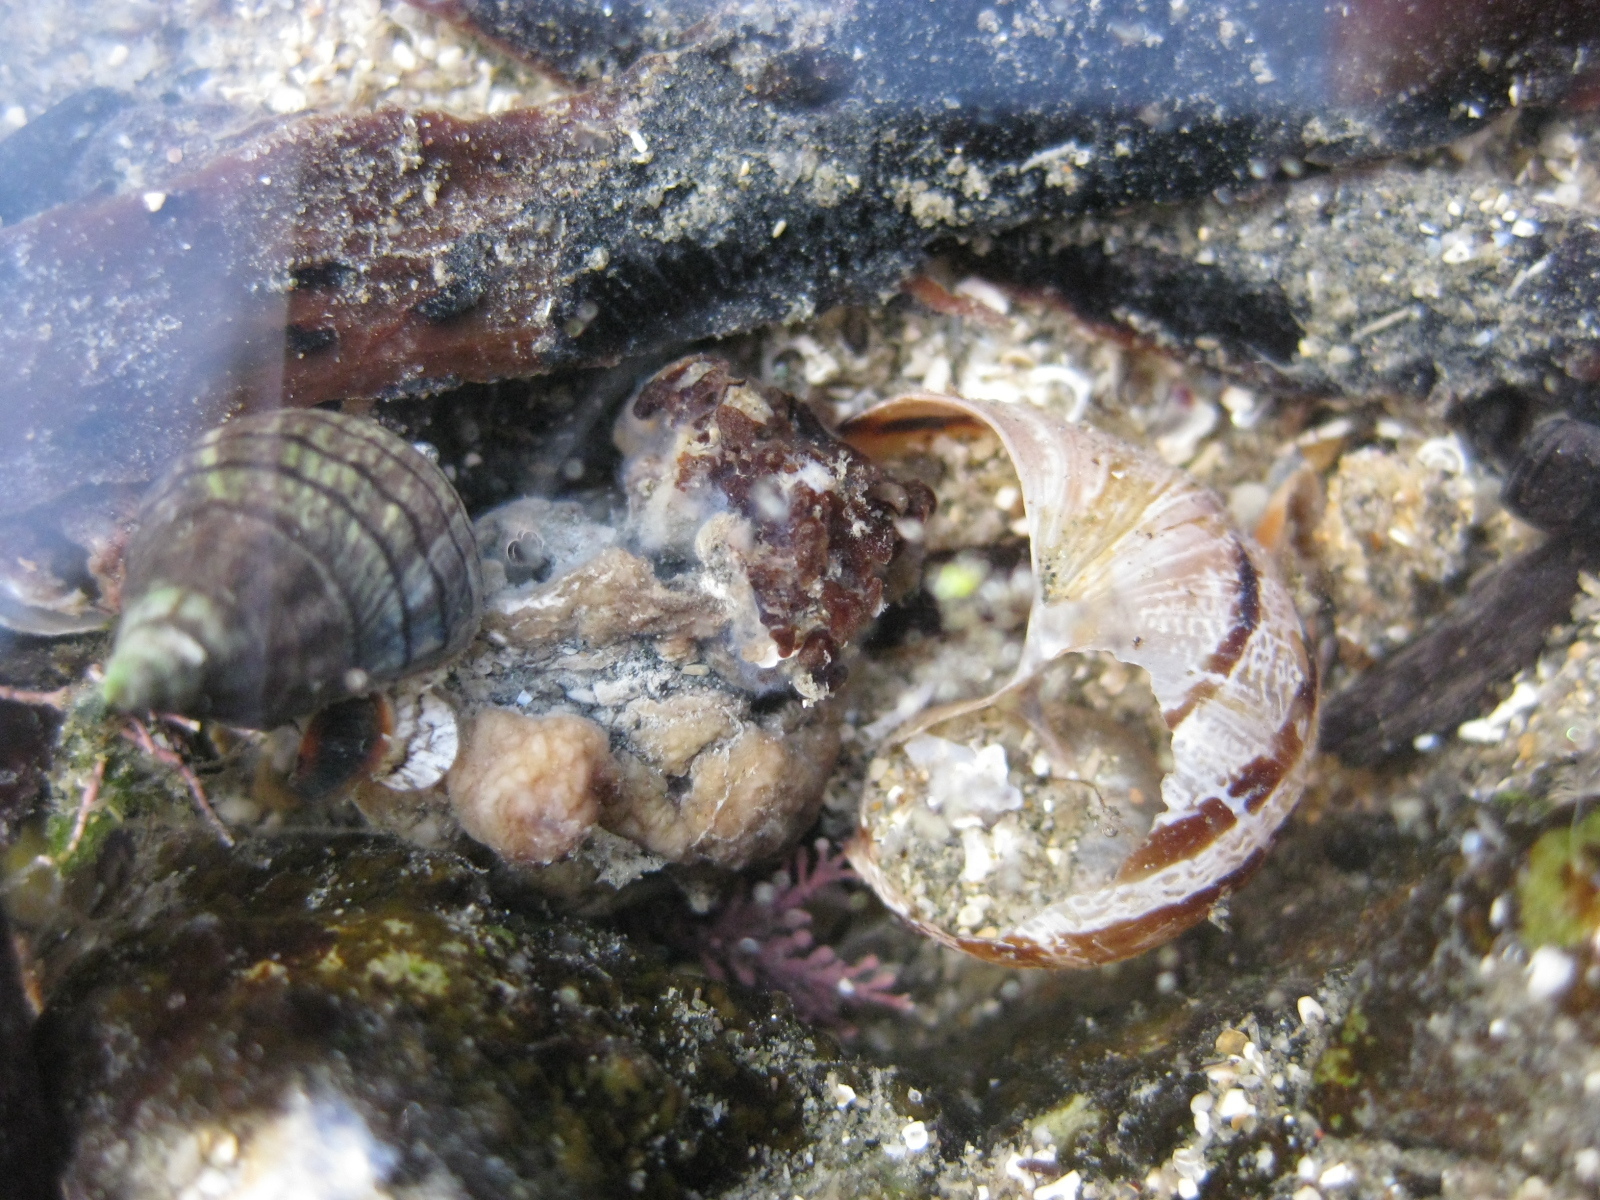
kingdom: Animalia
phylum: Mollusca
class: Gastropoda
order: Stylommatophora
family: Helicidae
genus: Cornu
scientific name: Cornu aspersum
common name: Brown garden snail
